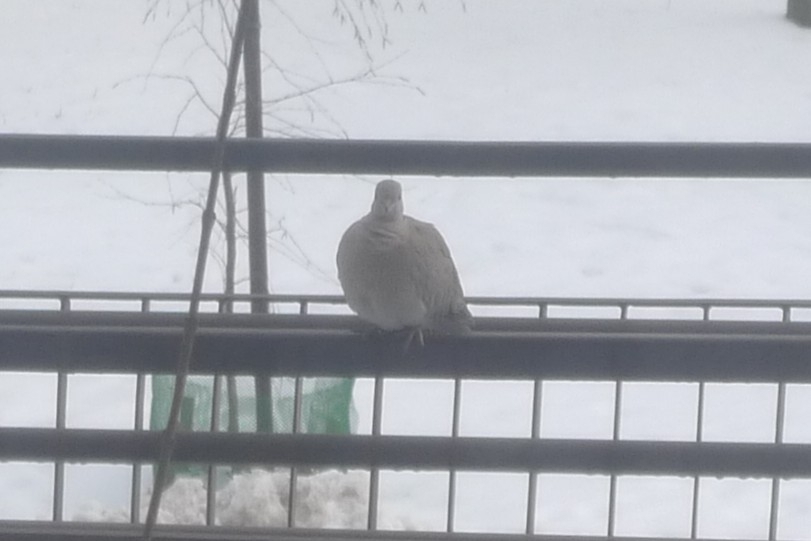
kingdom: Animalia
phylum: Chordata
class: Aves
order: Columbiformes
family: Columbidae
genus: Streptopelia
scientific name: Streptopelia decaocto
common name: Eurasian collared dove
